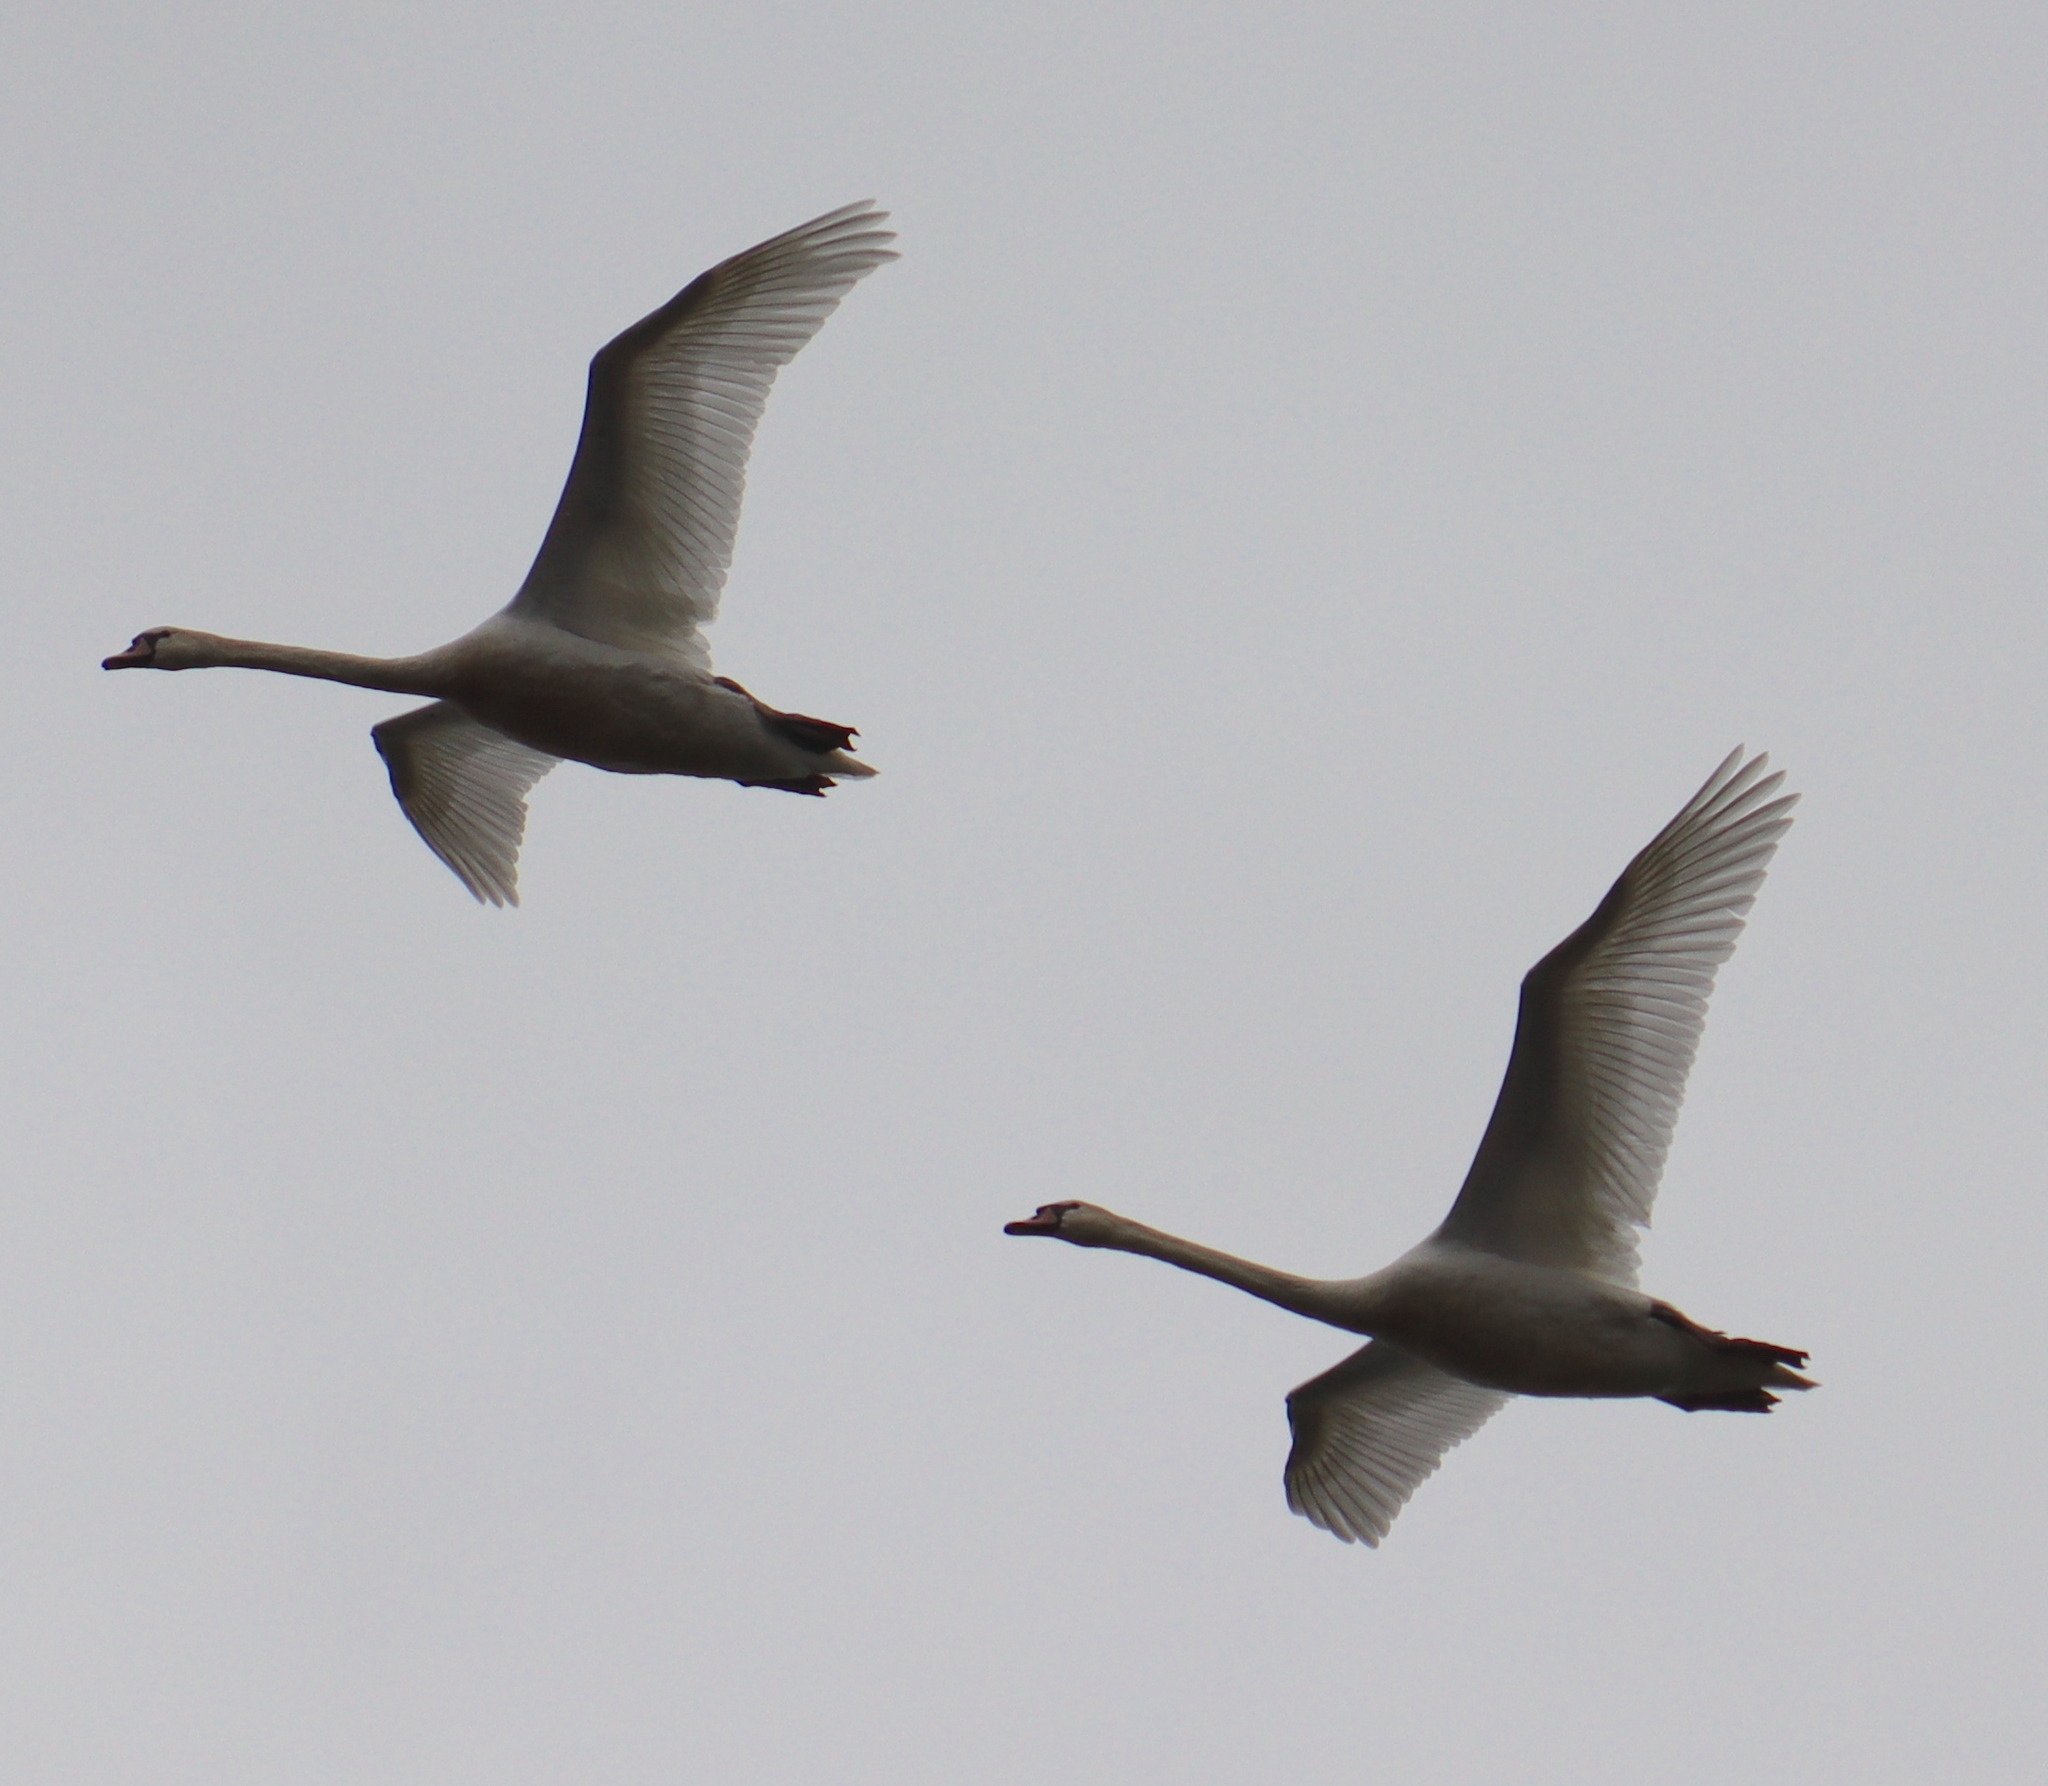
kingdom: Animalia
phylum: Chordata
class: Aves
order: Anseriformes
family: Anatidae
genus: Cygnus
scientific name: Cygnus olor
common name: Mute swan
